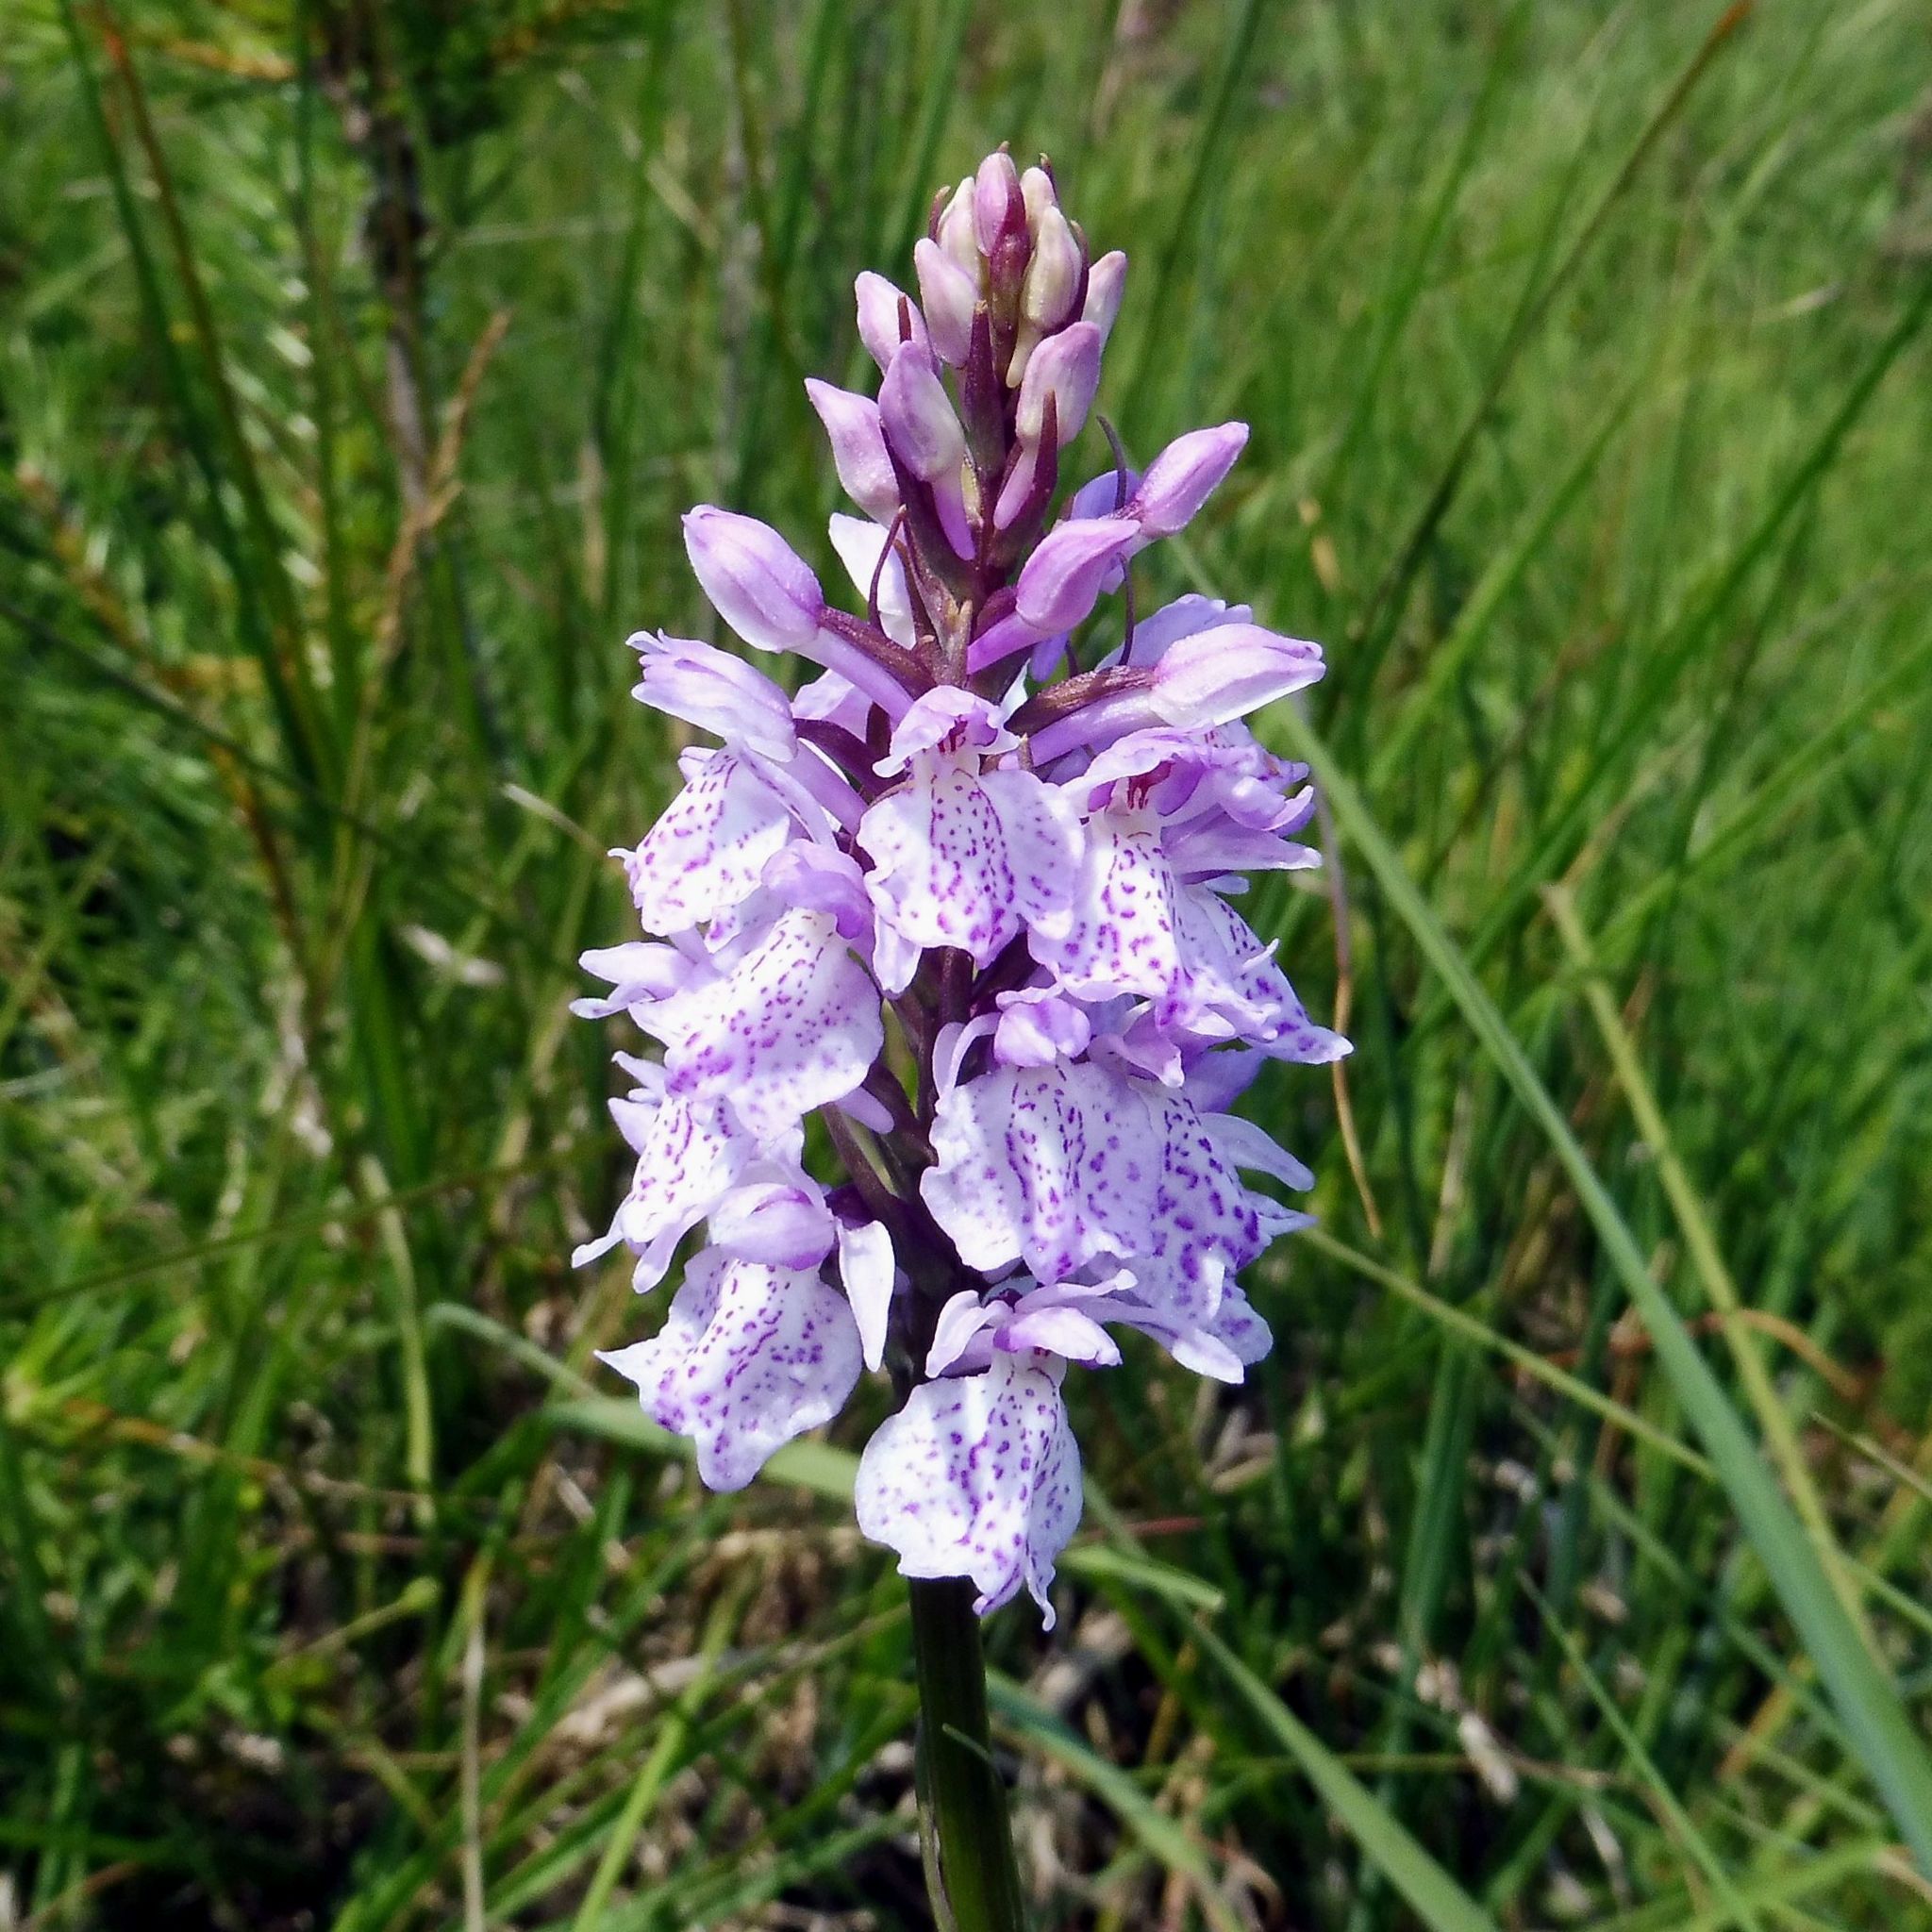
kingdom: Plantae
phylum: Tracheophyta
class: Liliopsida
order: Asparagales
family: Orchidaceae
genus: Dactylorhiza
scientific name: Dactylorhiza maculata
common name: Heath spotted-orchid
